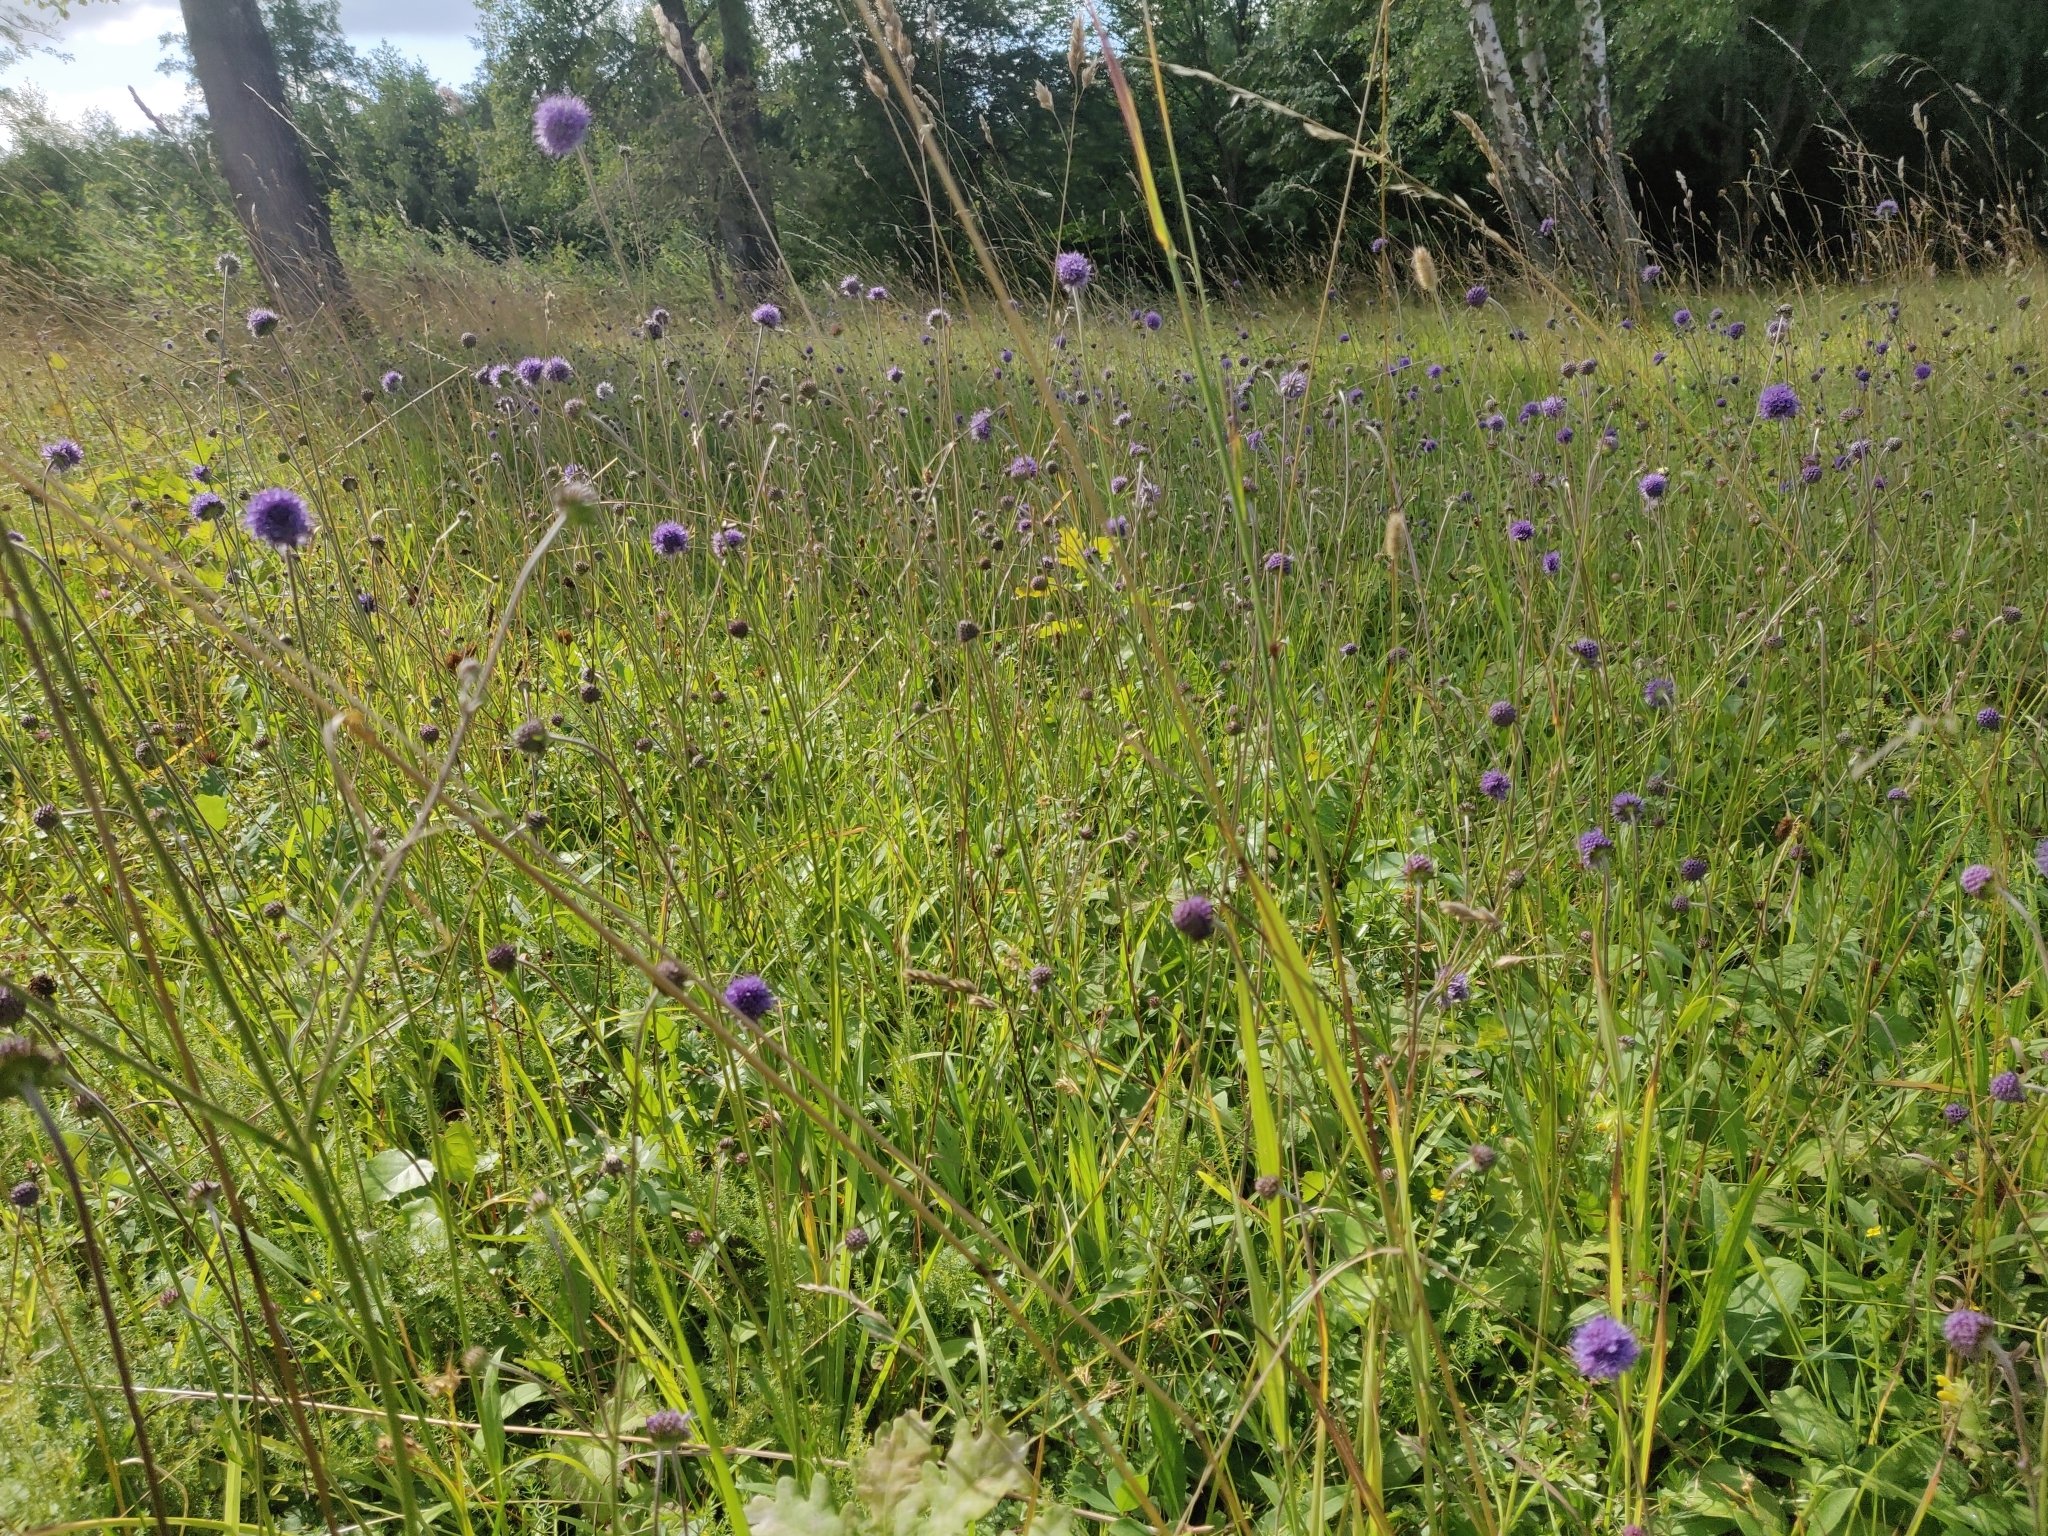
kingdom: Plantae
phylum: Tracheophyta
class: Magnoliopsida
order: Dipsacales
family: Caprifoliaceae
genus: Succisa
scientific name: Succisa pratensis
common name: Devil's-bit
